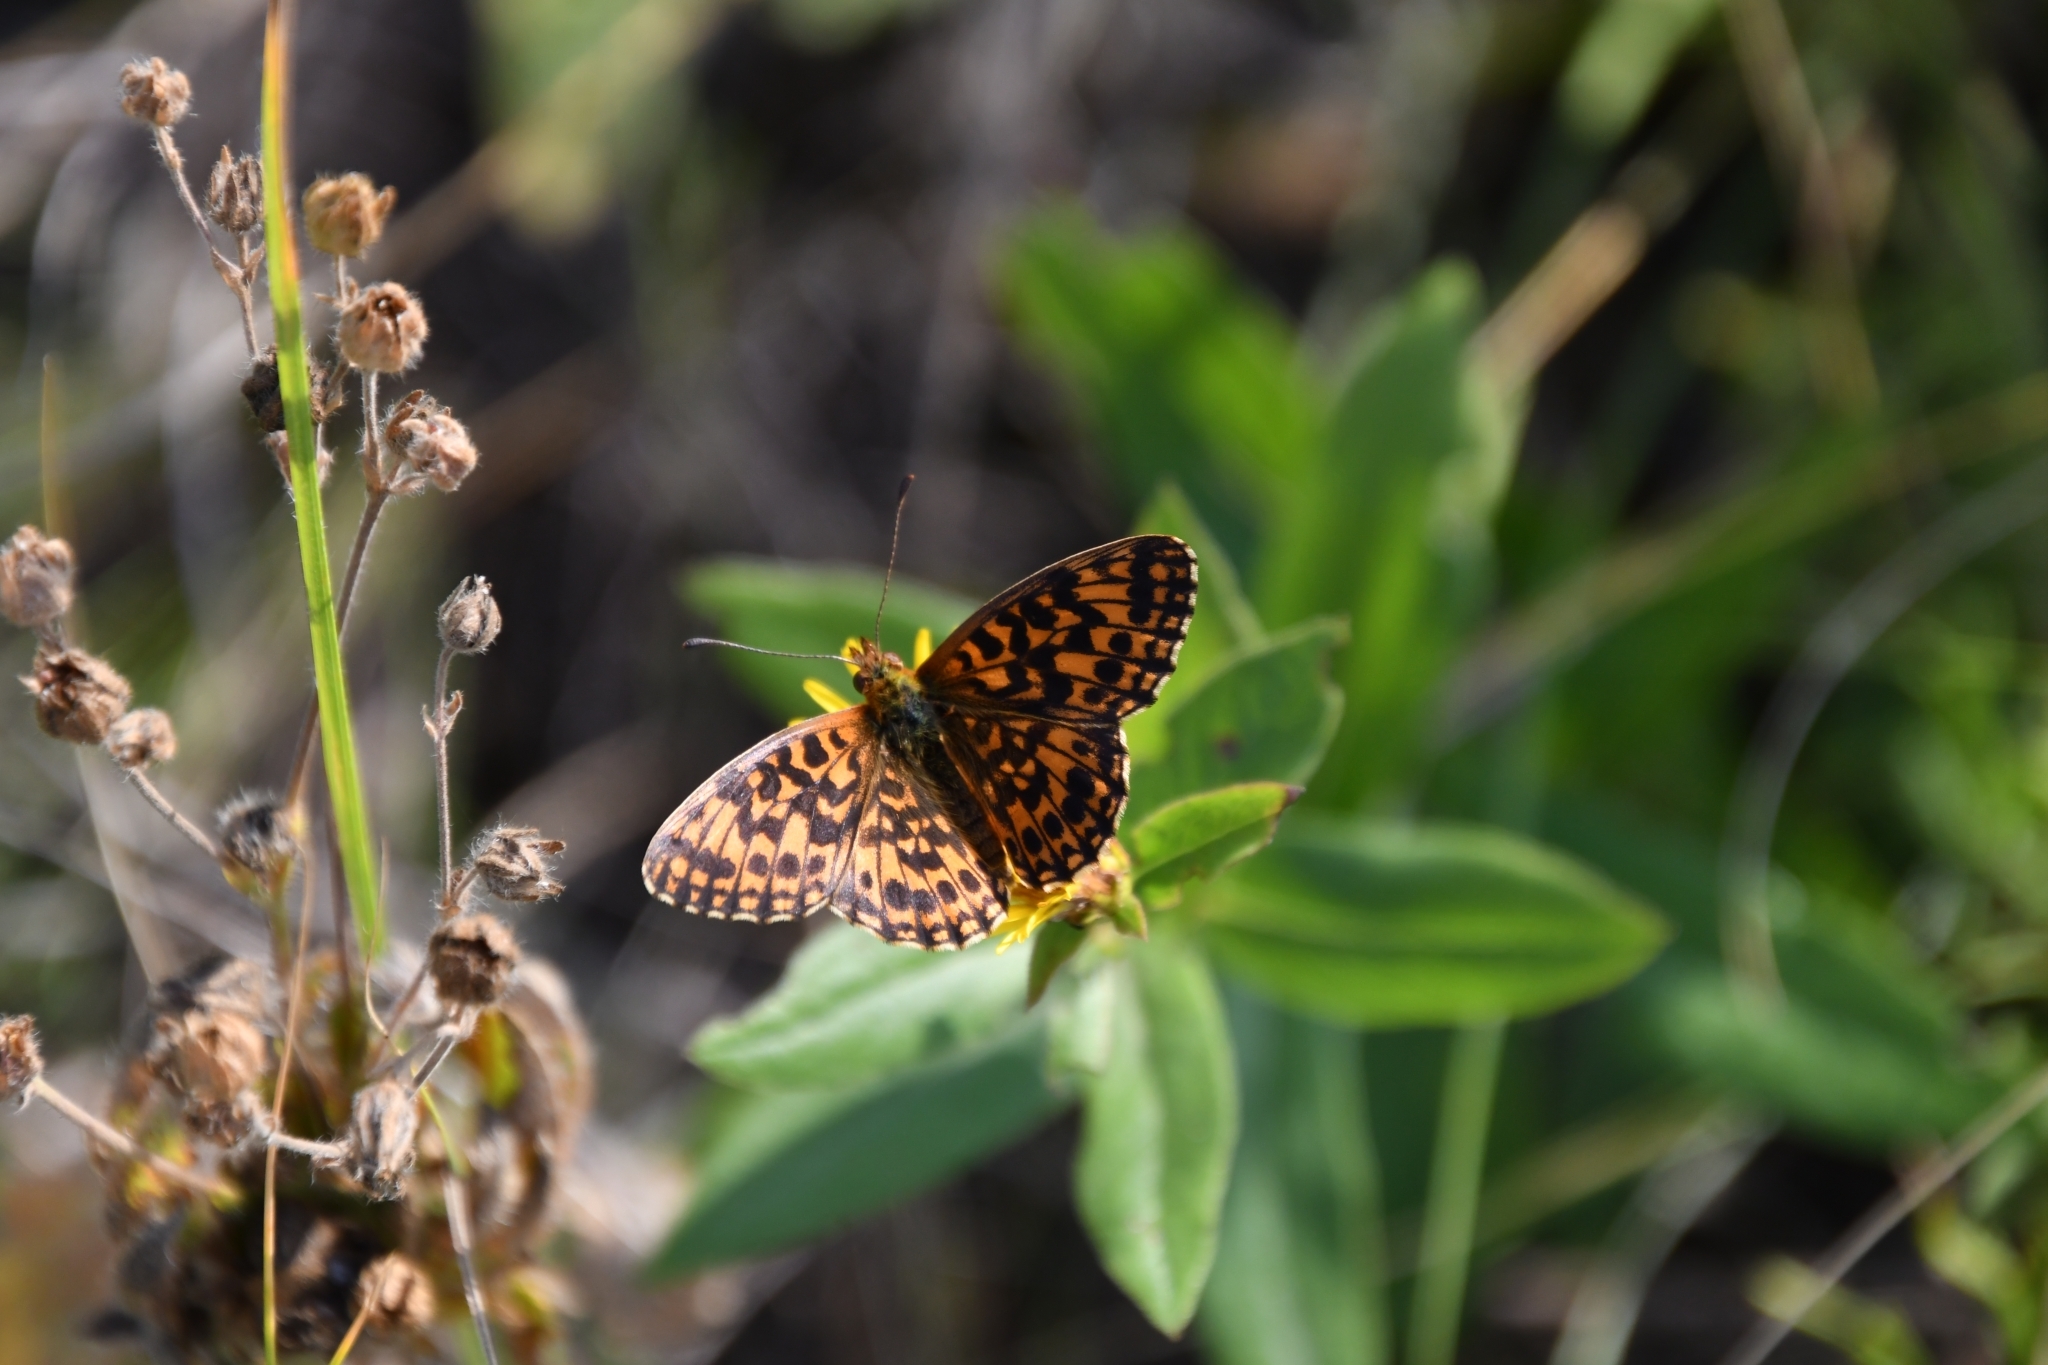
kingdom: Animalia
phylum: Arthropoda
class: Insecta
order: Lepidoptera
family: Nymphalidae
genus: Boloria
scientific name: Boloria dia
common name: Weaver's fritillary
